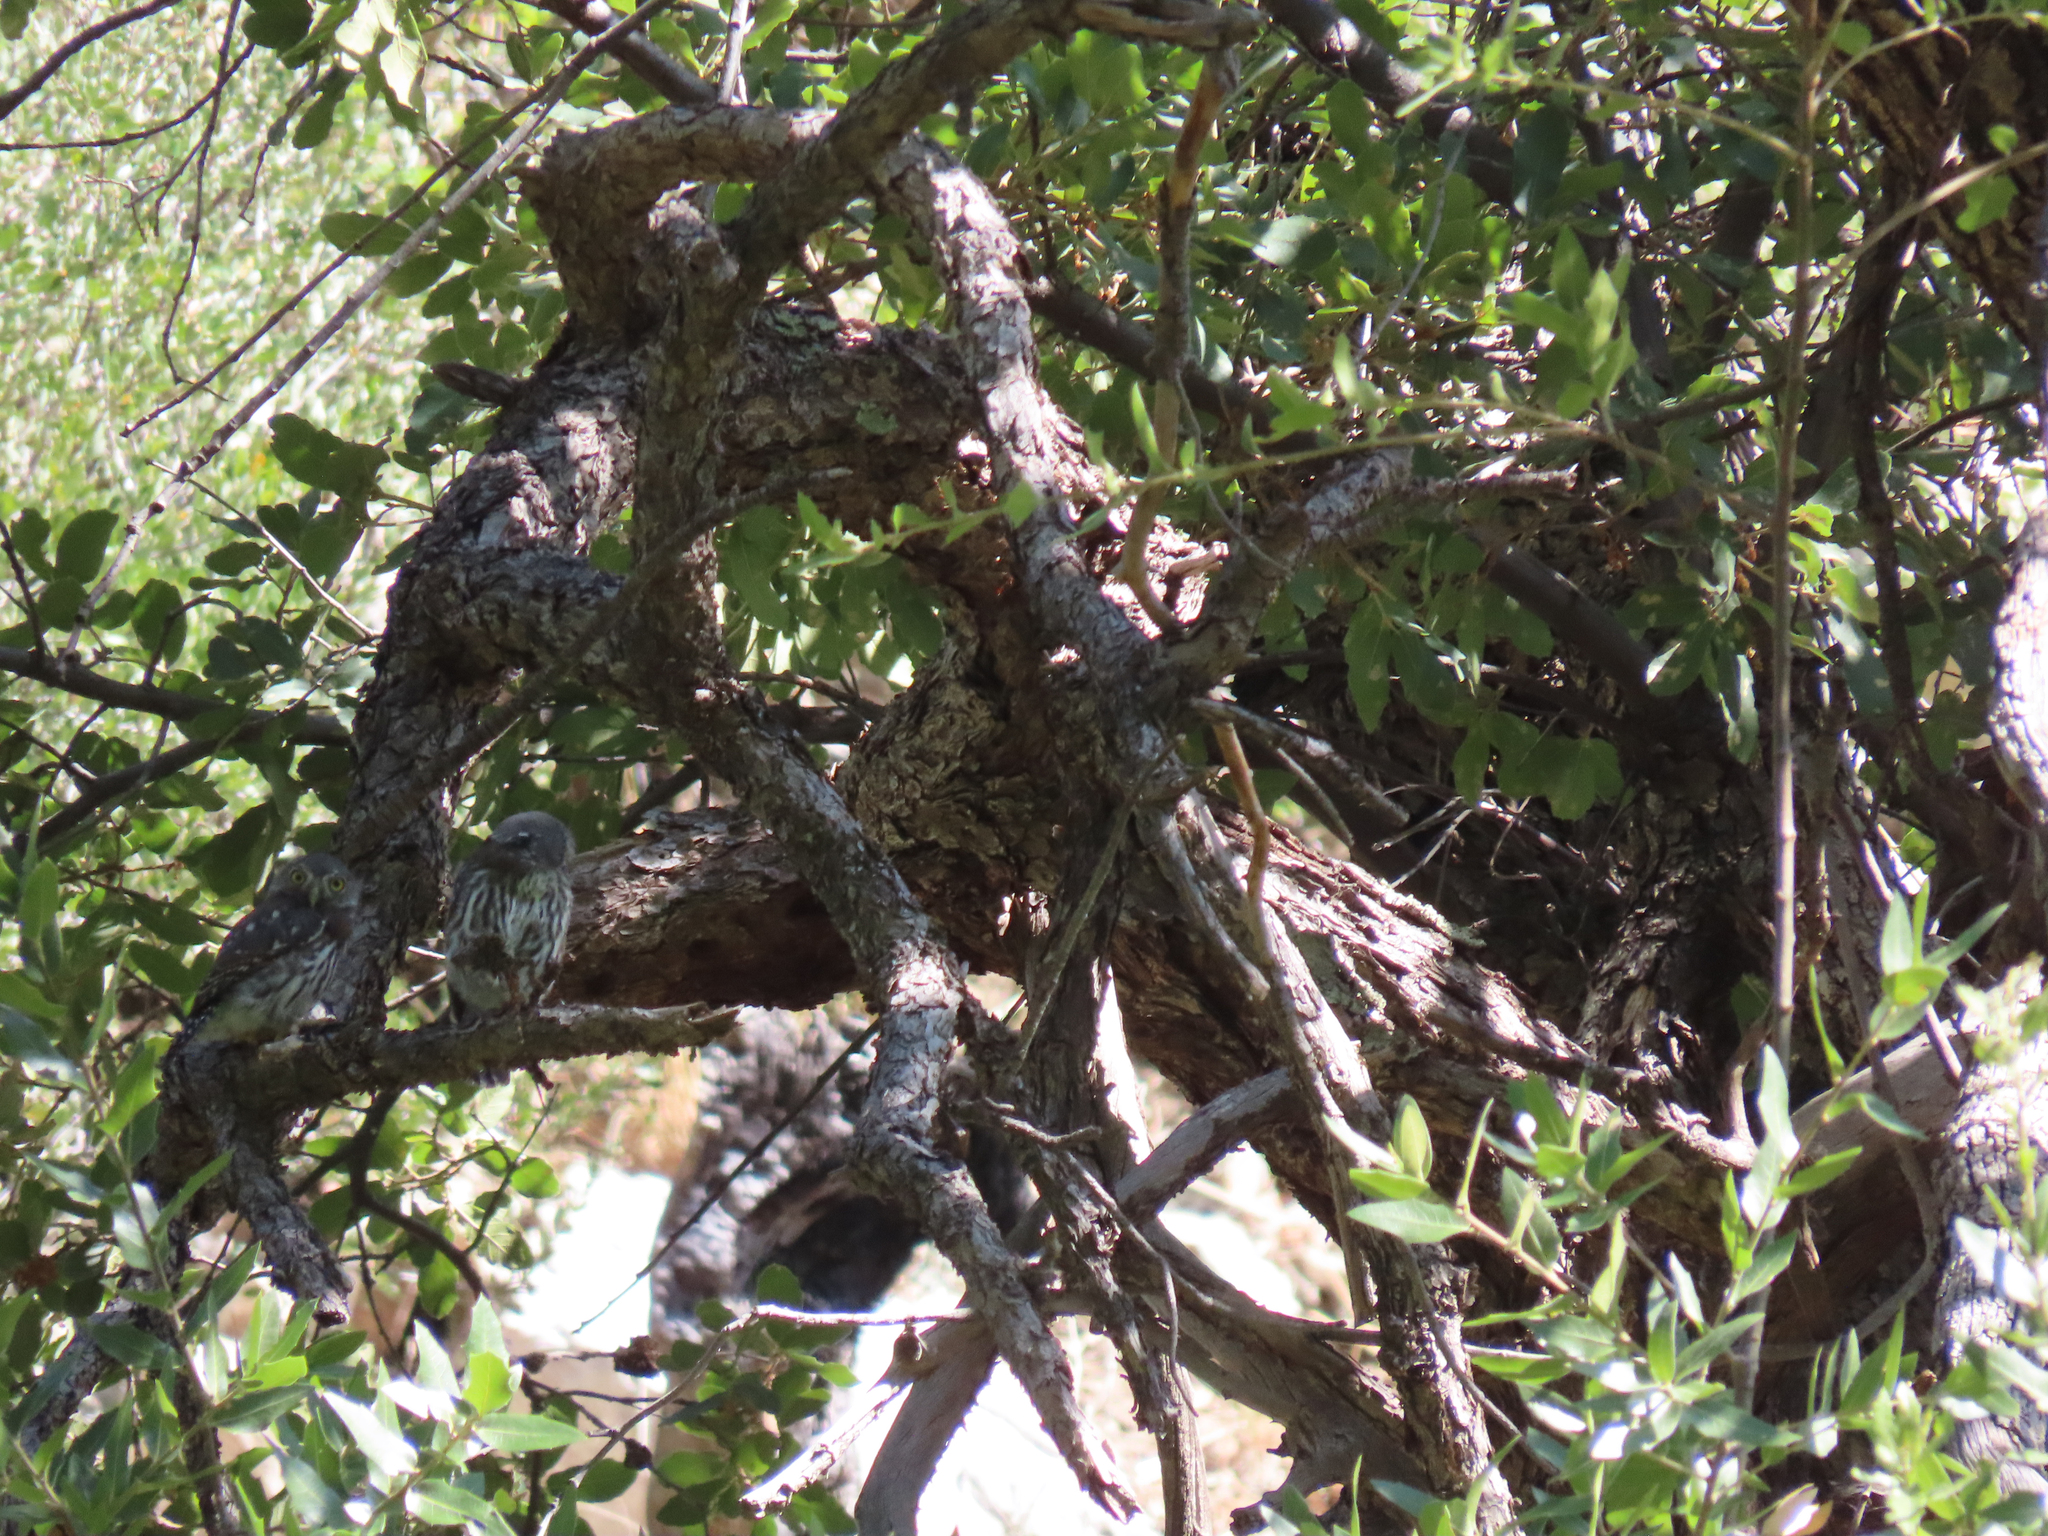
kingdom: Animalia
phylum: Chordata
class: Aves
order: Strigiformes
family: Strigidae
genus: Glaucidium
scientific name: Glaucidium gnoma
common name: Northern pygmy-owl
